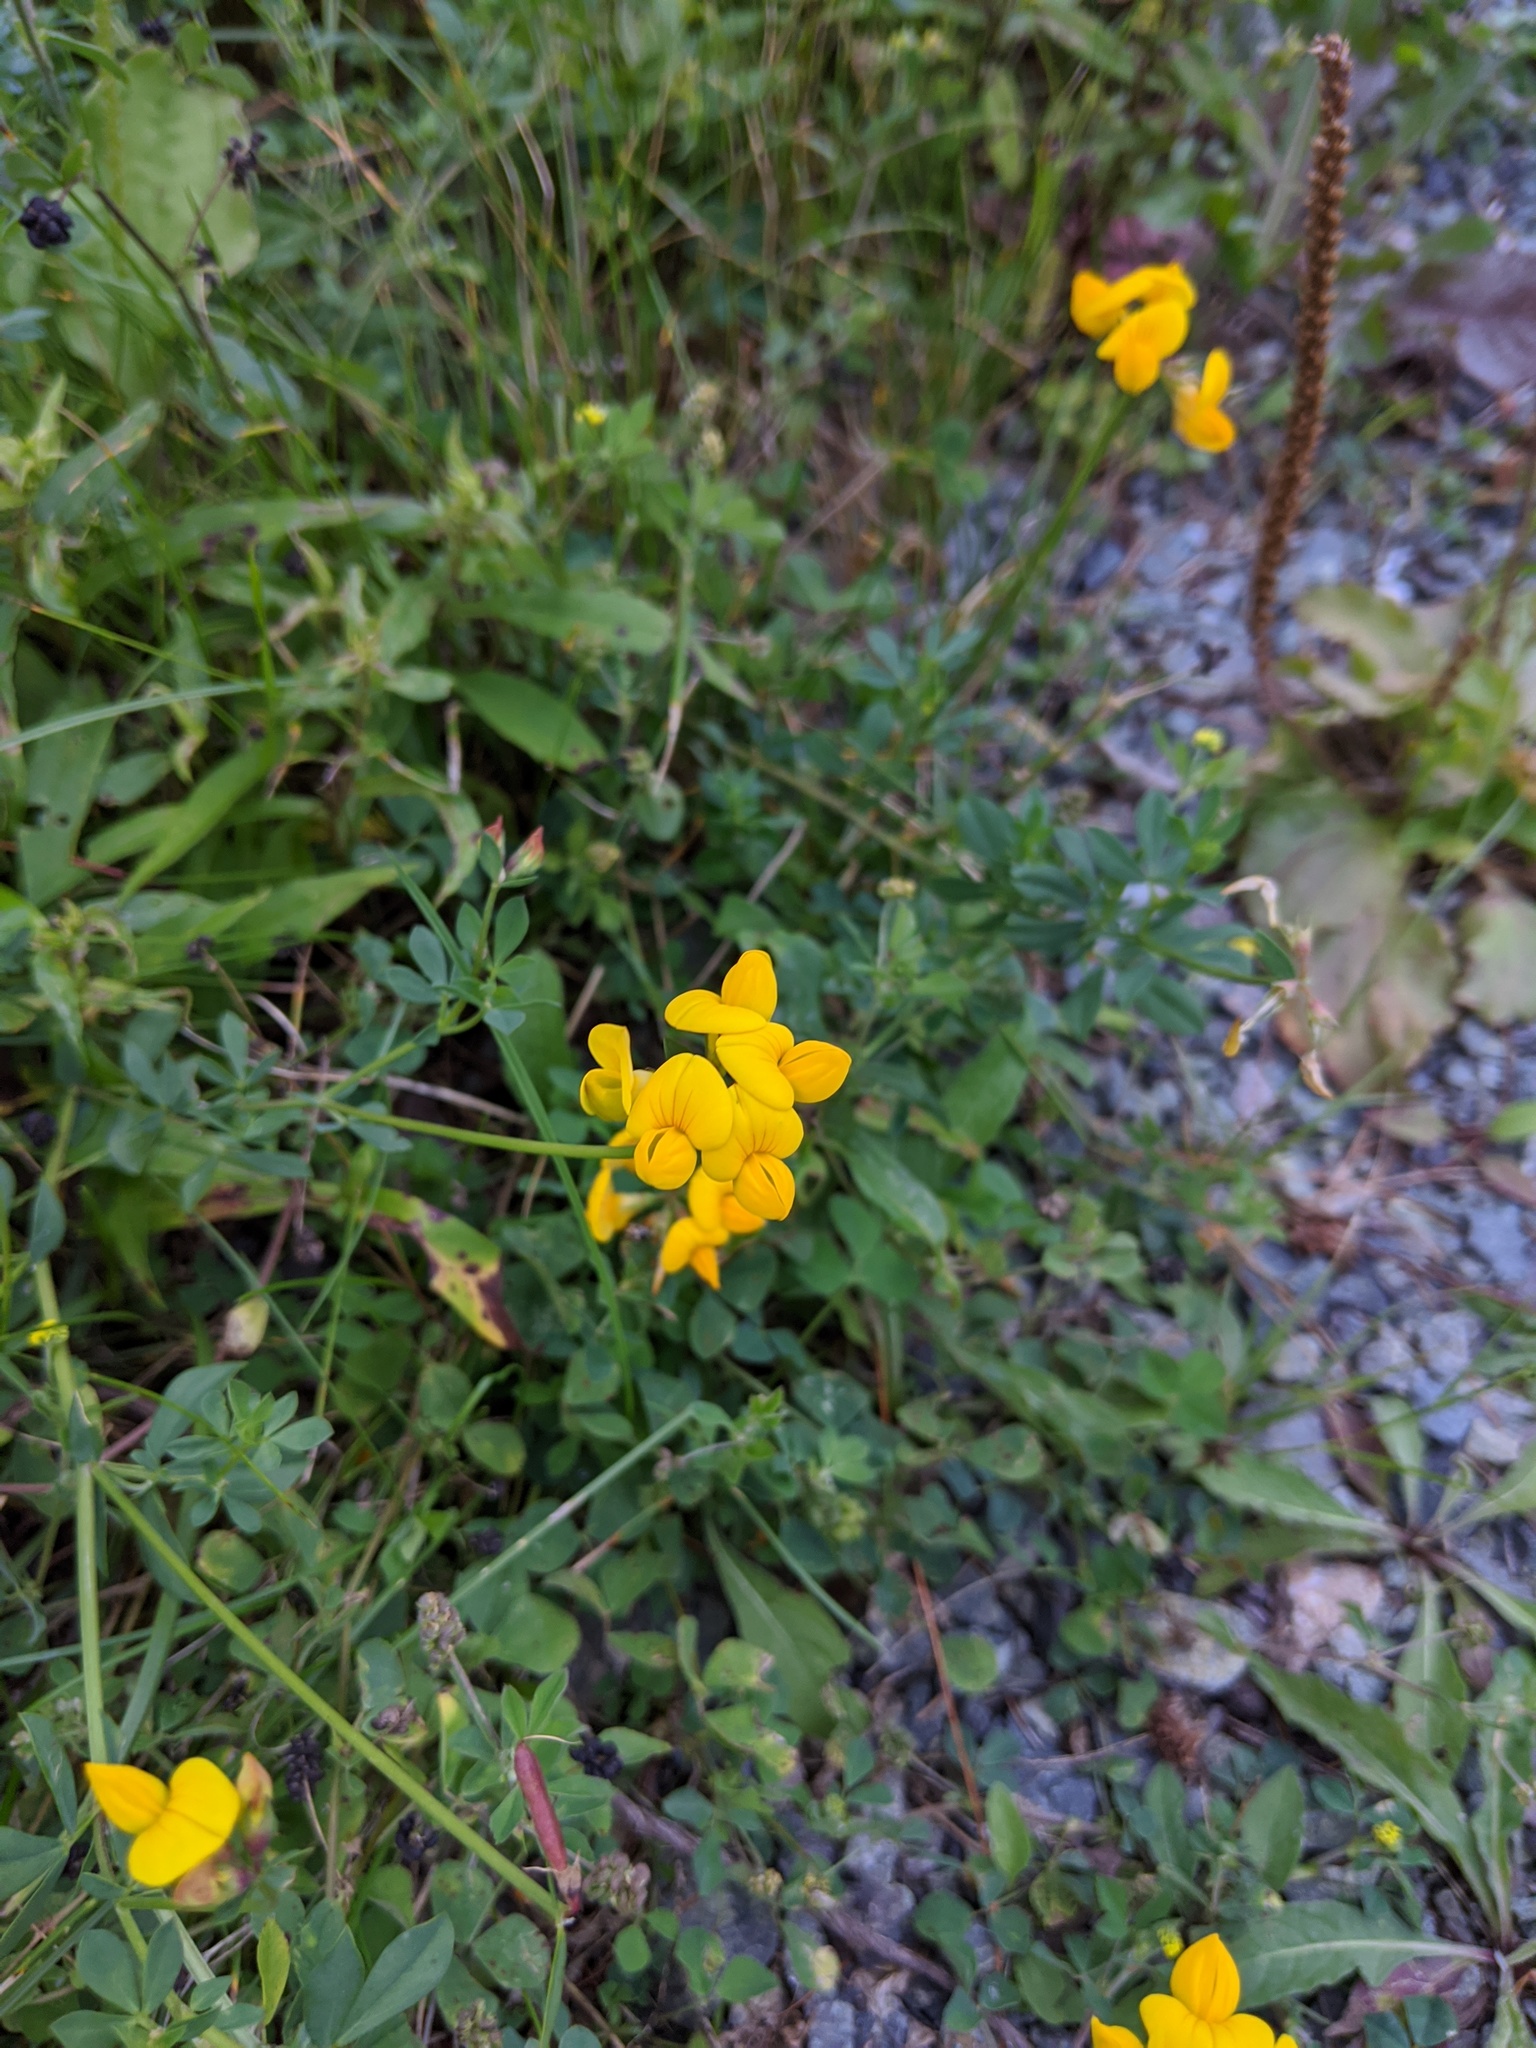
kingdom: Plantae
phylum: Tracheophyta
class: Magnoliopsida
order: Fabales
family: Fabaceae
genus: Lotus
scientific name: Lotus corniculatus
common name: Common bird's-foot-trefoil
